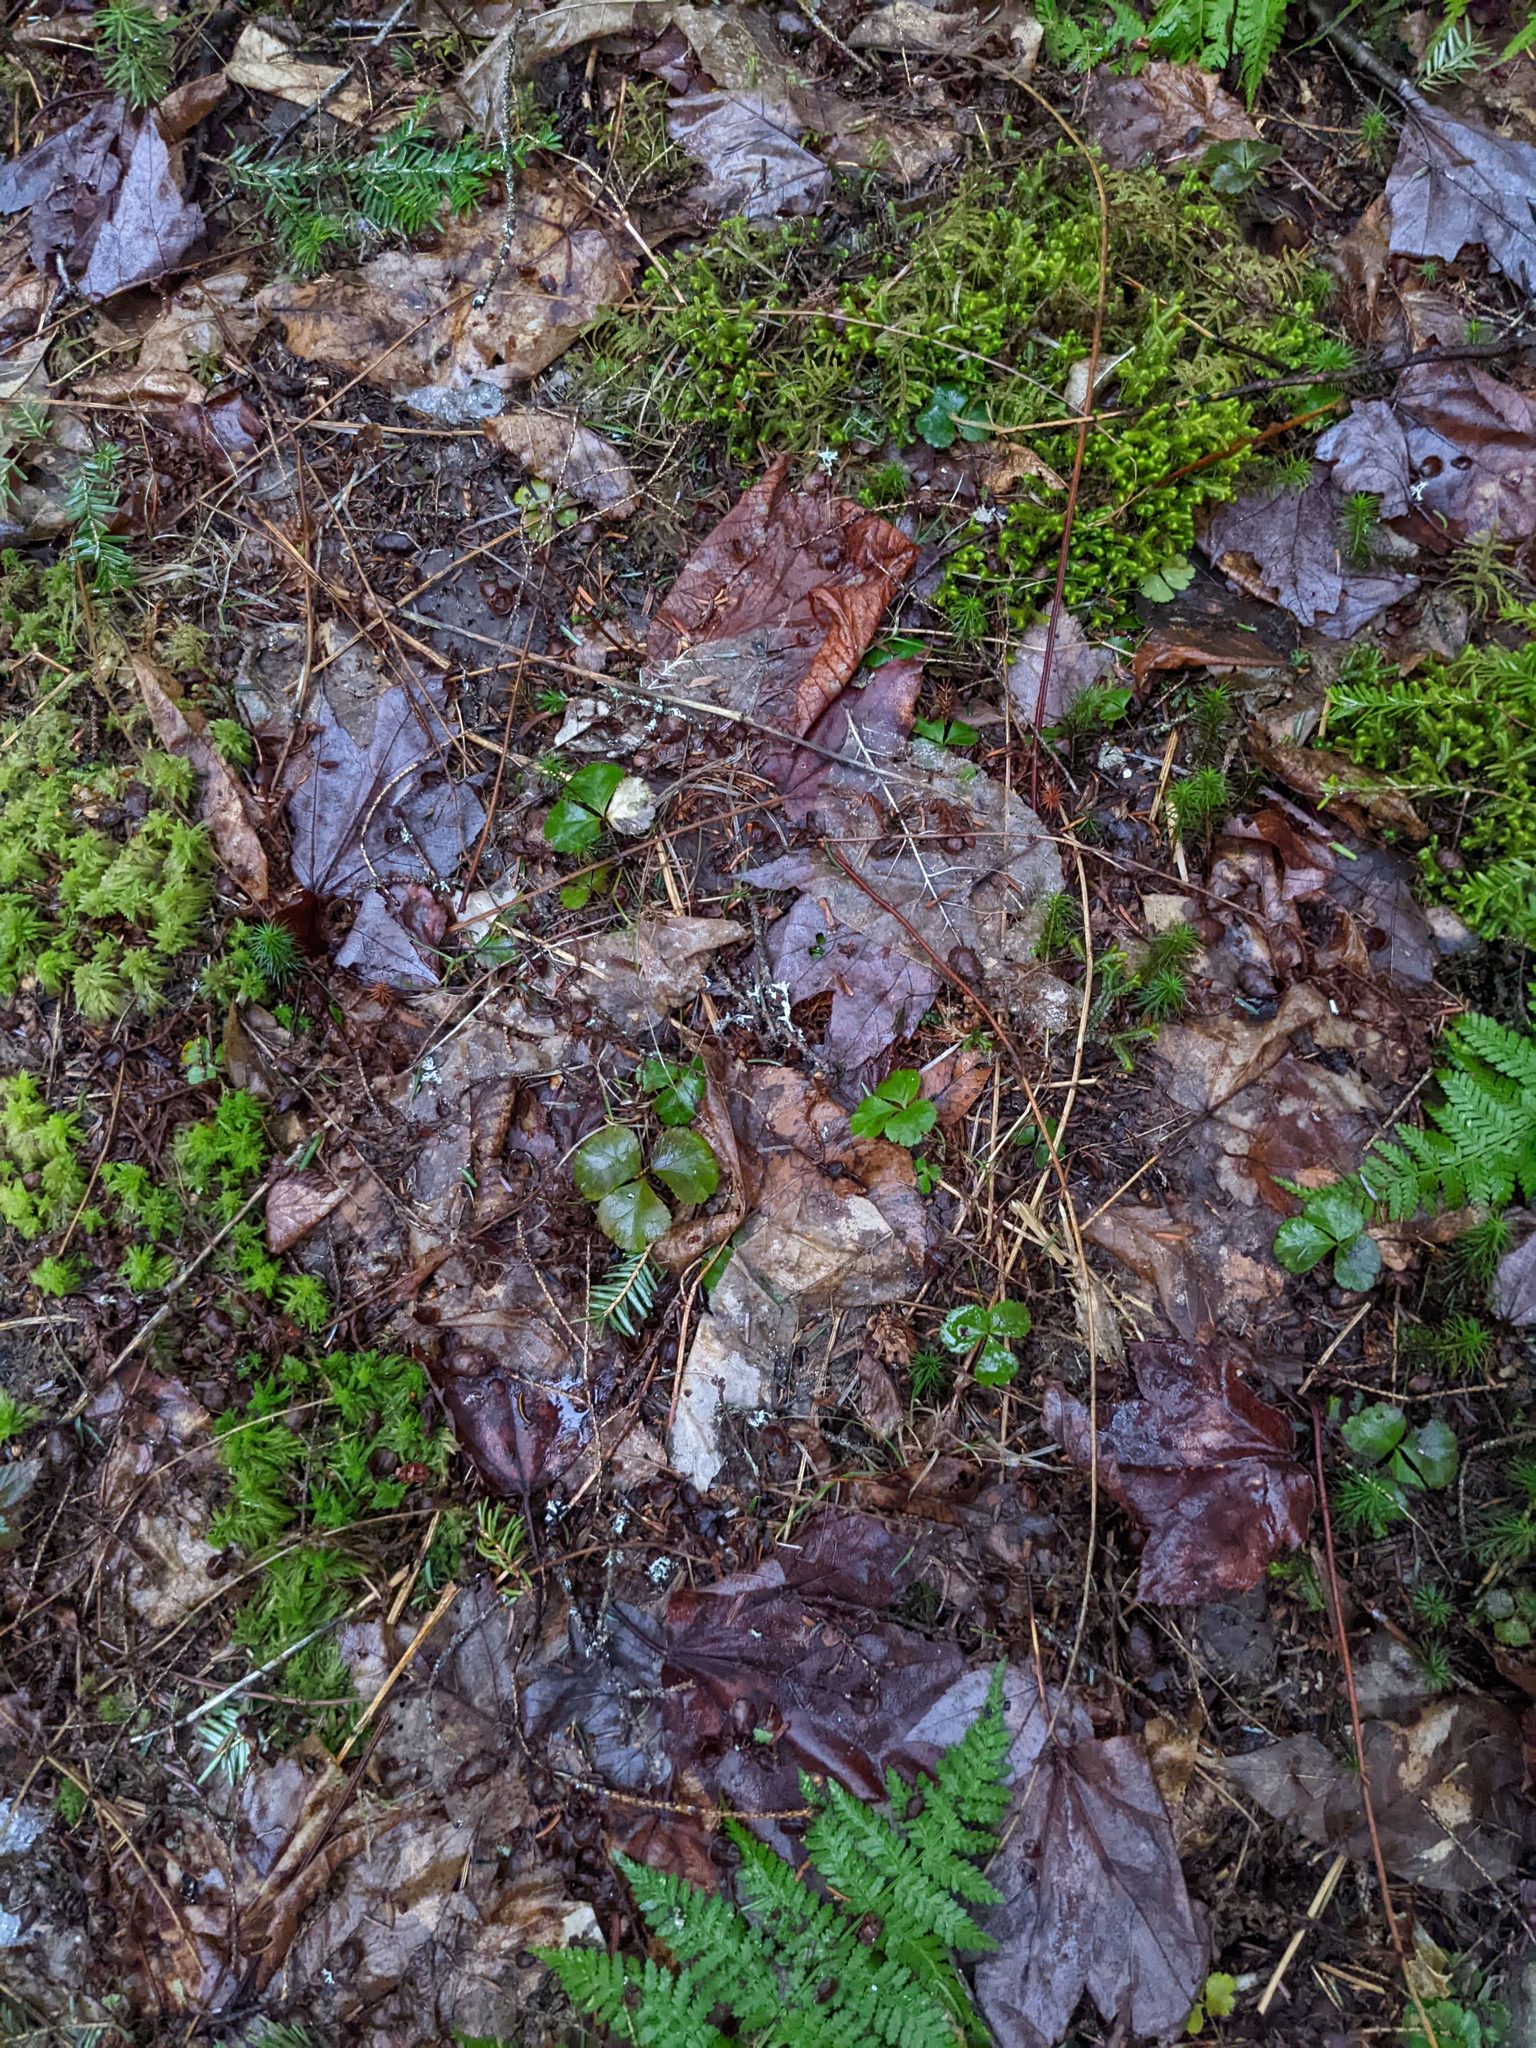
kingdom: Plantae
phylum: Tracheophyta
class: Magnoliopsida
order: Ranunculales
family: Ranunculaceae
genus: Coptis
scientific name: Coptis trifolia
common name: Canker-root
